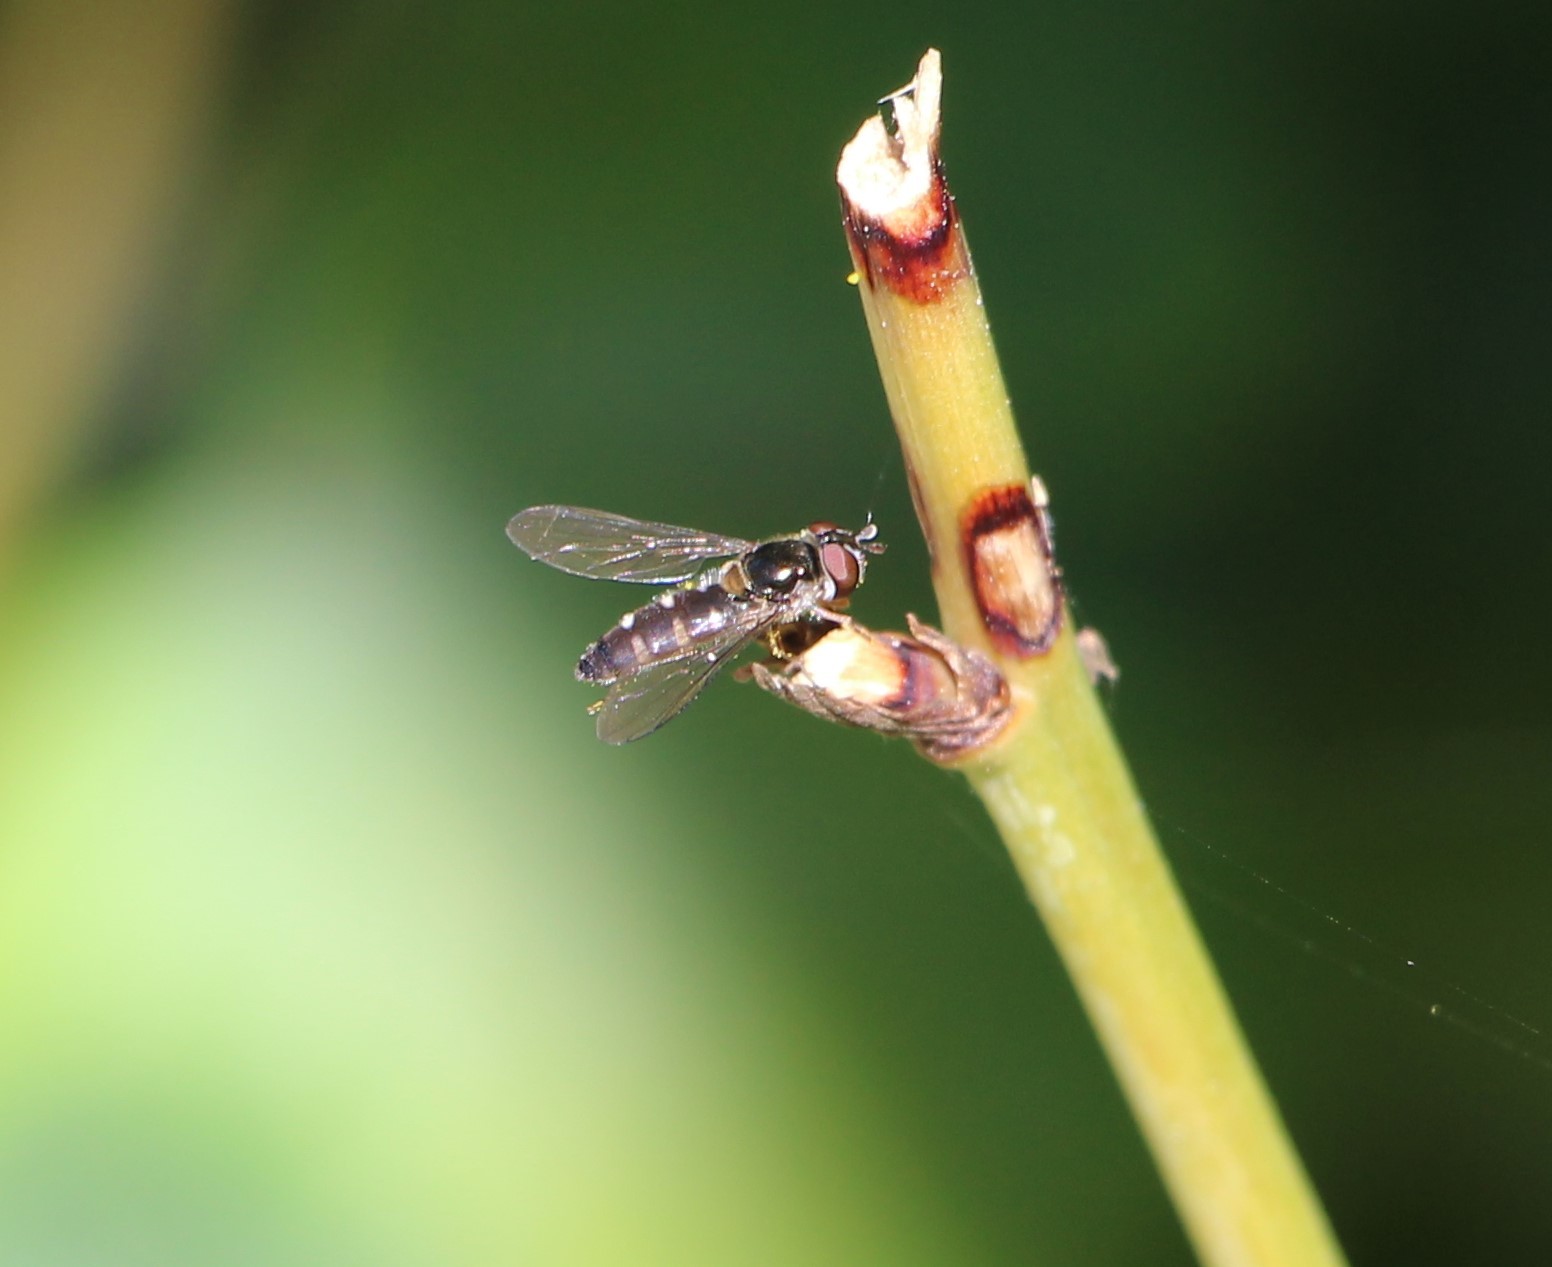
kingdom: Animalia
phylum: Arthropoda
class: Insecta
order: Diptera
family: Syrphidae
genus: Melangyna
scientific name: Melangyna novaezelandiae
